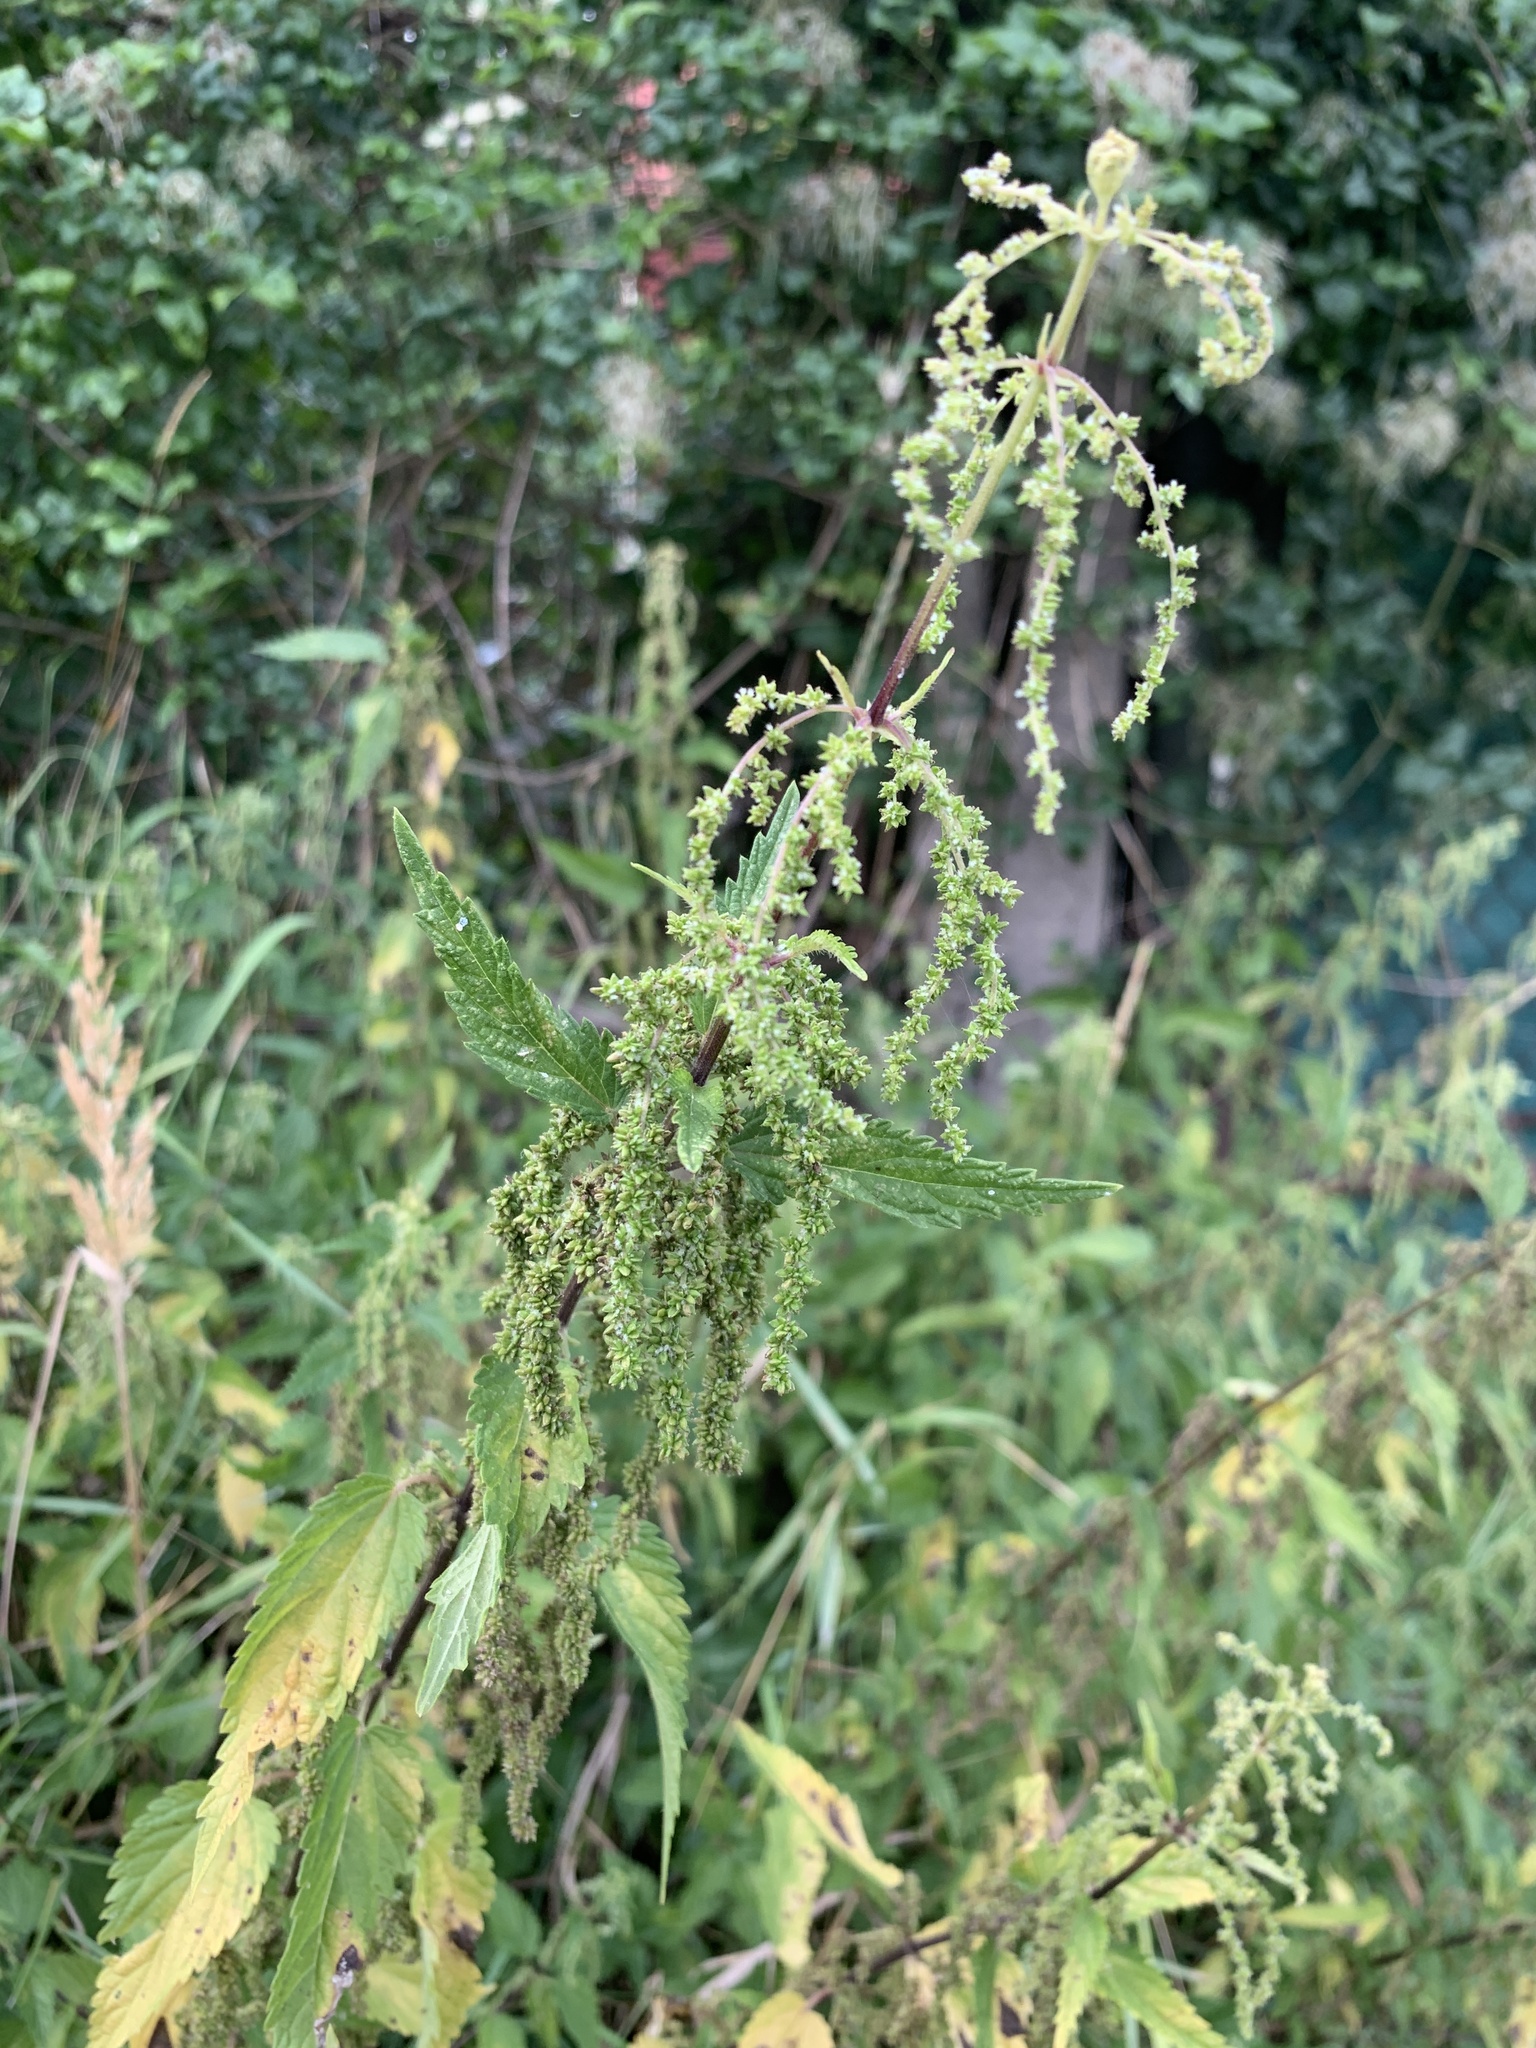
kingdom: Plantae
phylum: Tracheophyta
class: Magnoliopsida
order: Rosales
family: Urticaceae
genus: Urtica
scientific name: Urtica dioica
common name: Common nettle
